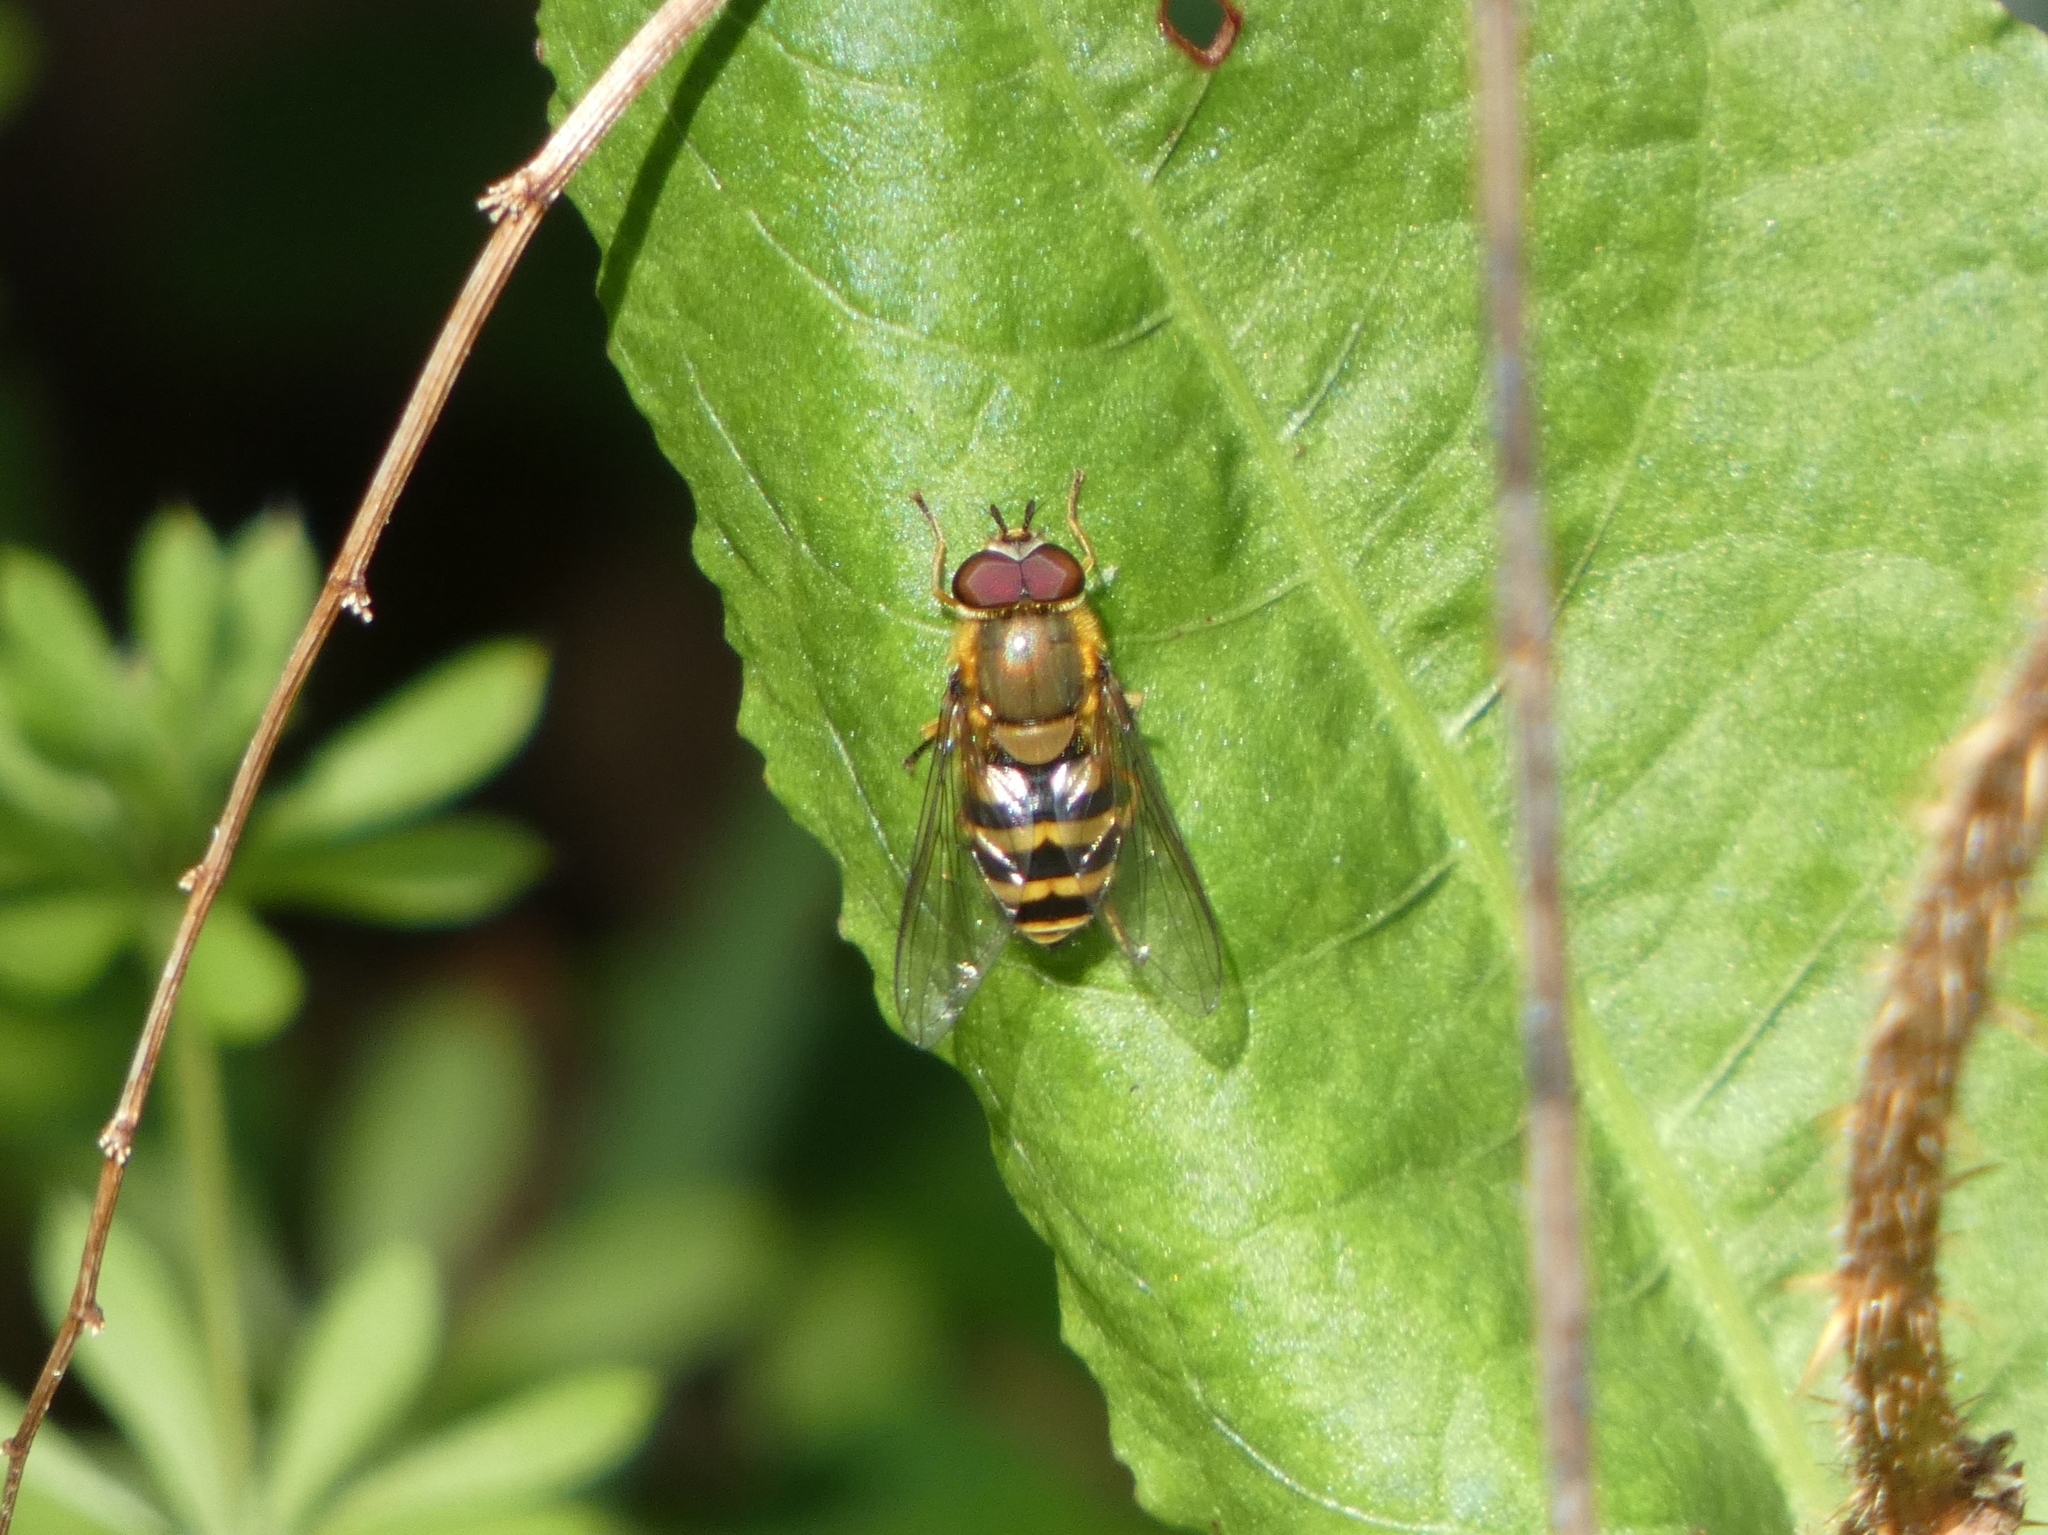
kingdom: Animalia
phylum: Arthropoda
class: Insecta
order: Diptera
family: Syrphidae
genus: Syrphus
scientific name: Syrphus
